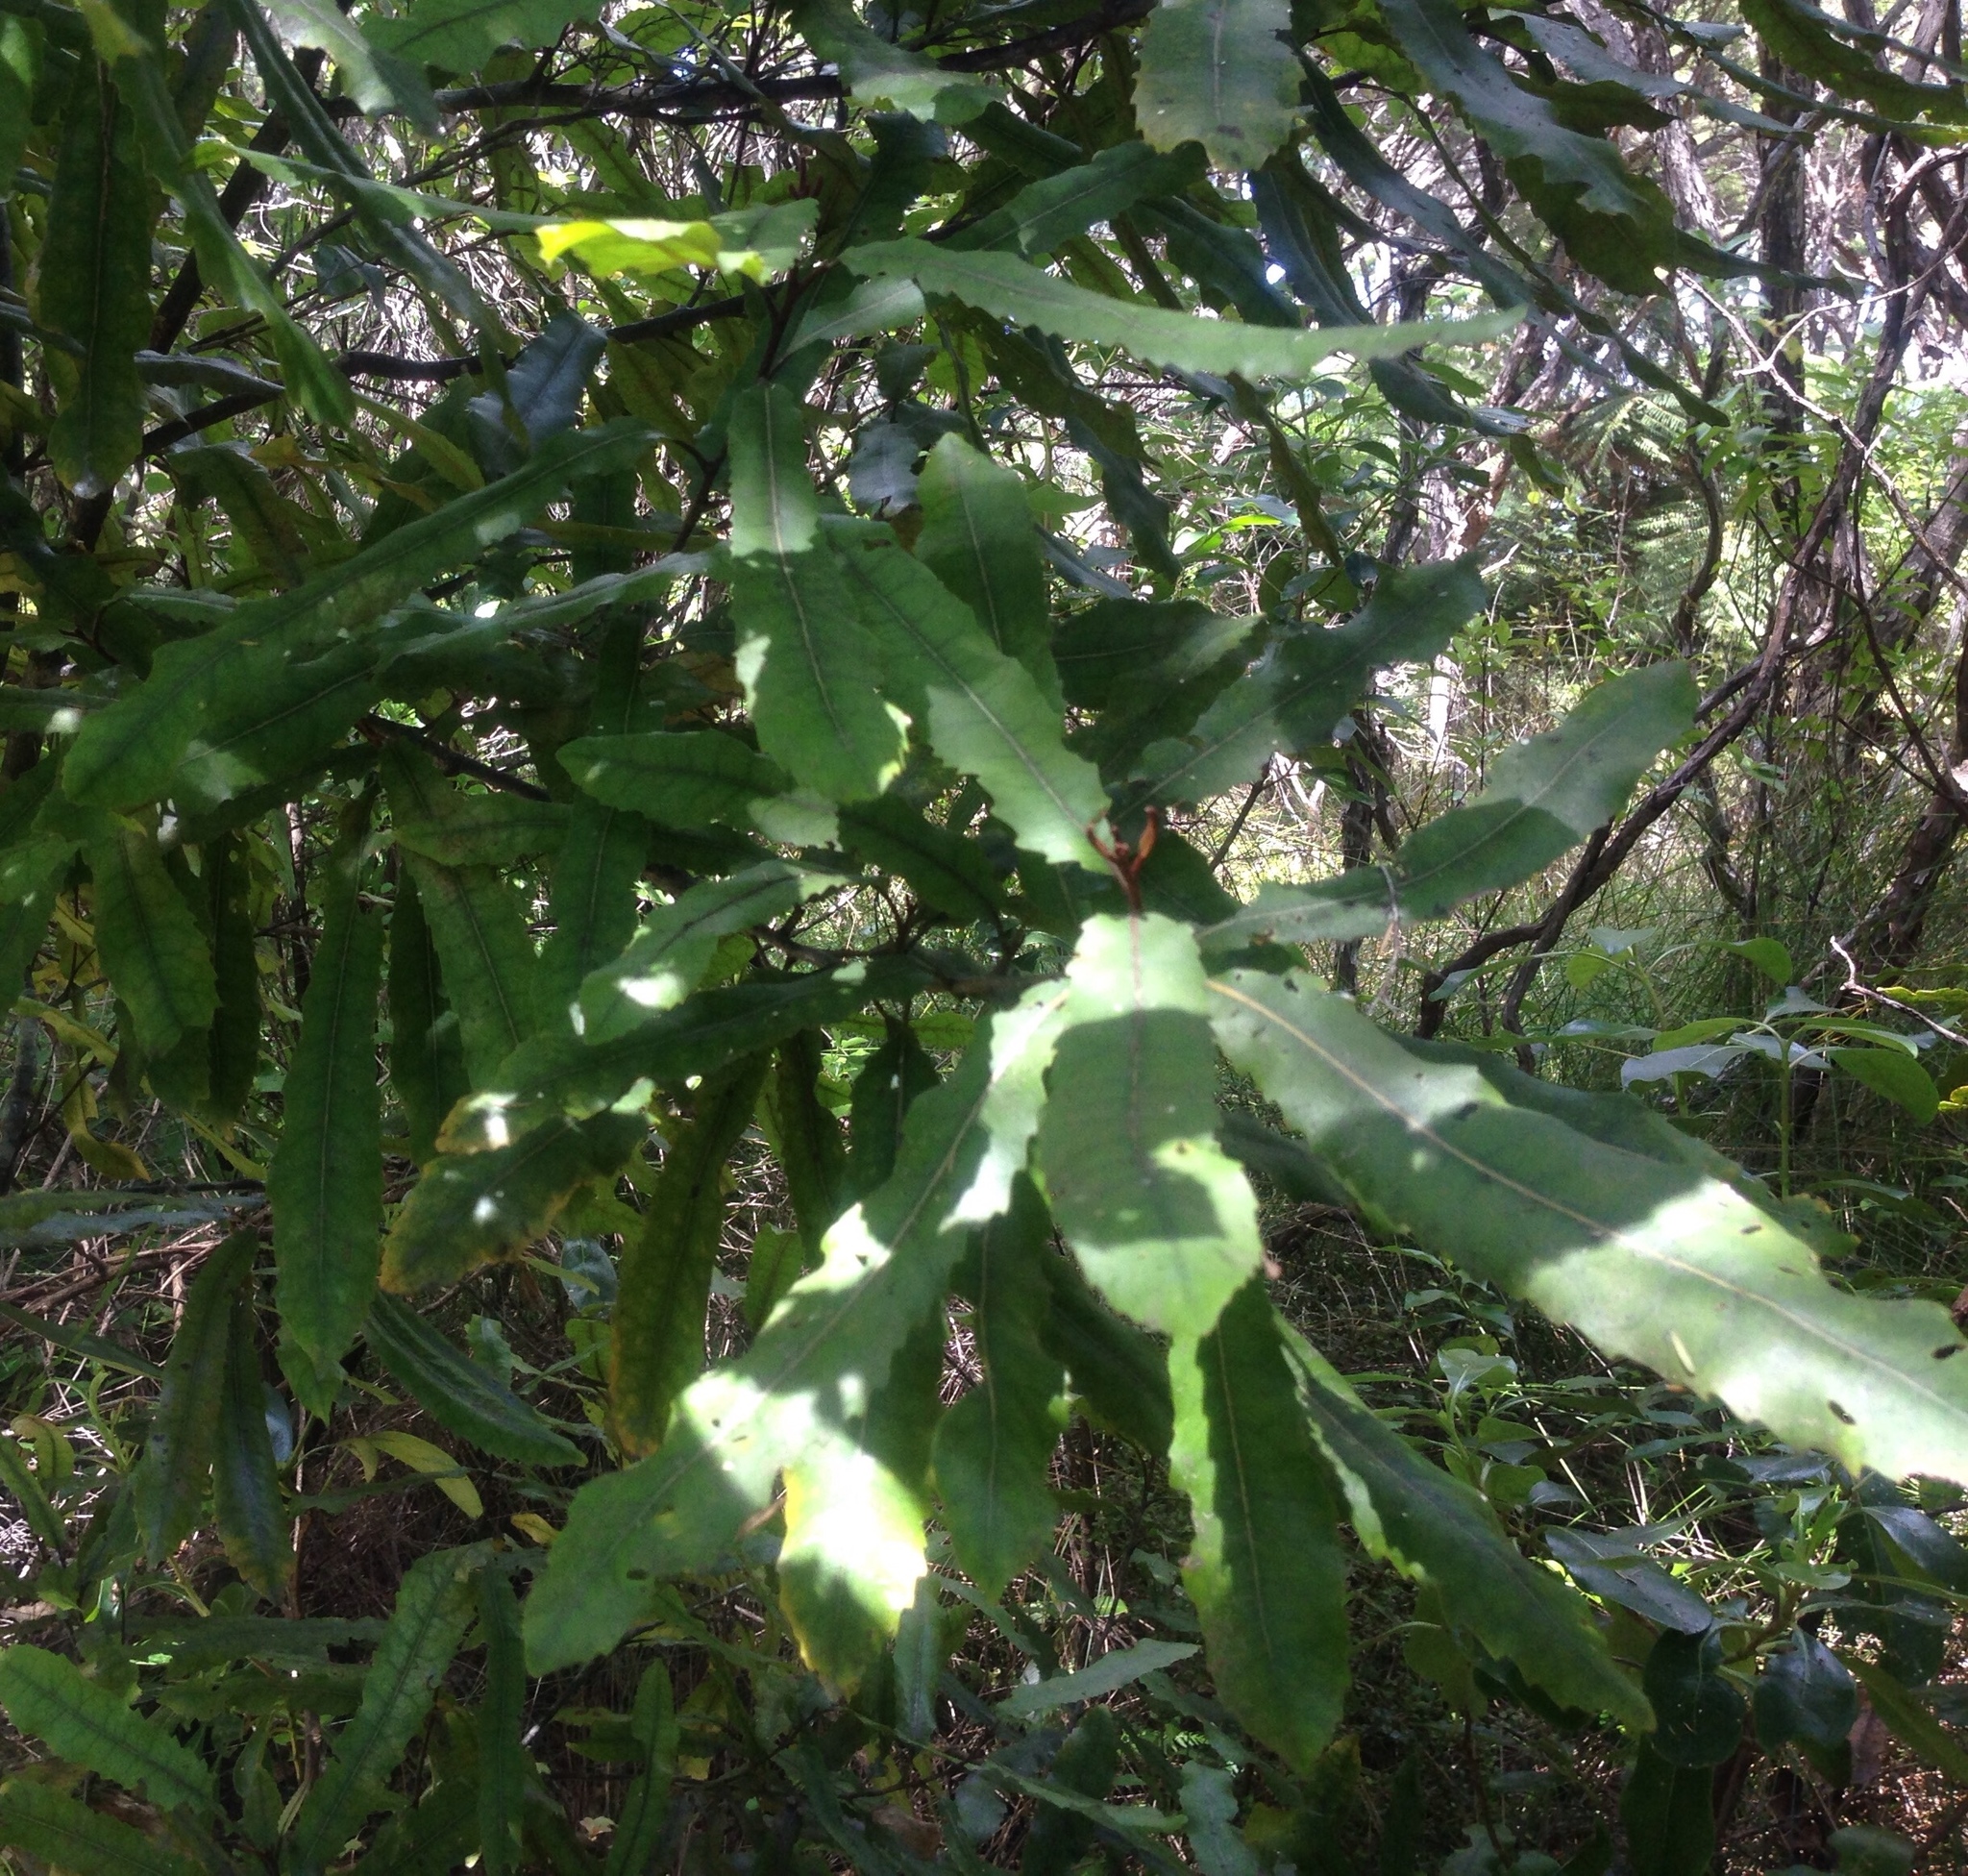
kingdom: Plantae
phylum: Tracheophyta
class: Magnoliopsida
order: Proteales
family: Proteaceae
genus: Knightia
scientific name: Knightia excelsa
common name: New zealand-honeysuckle
